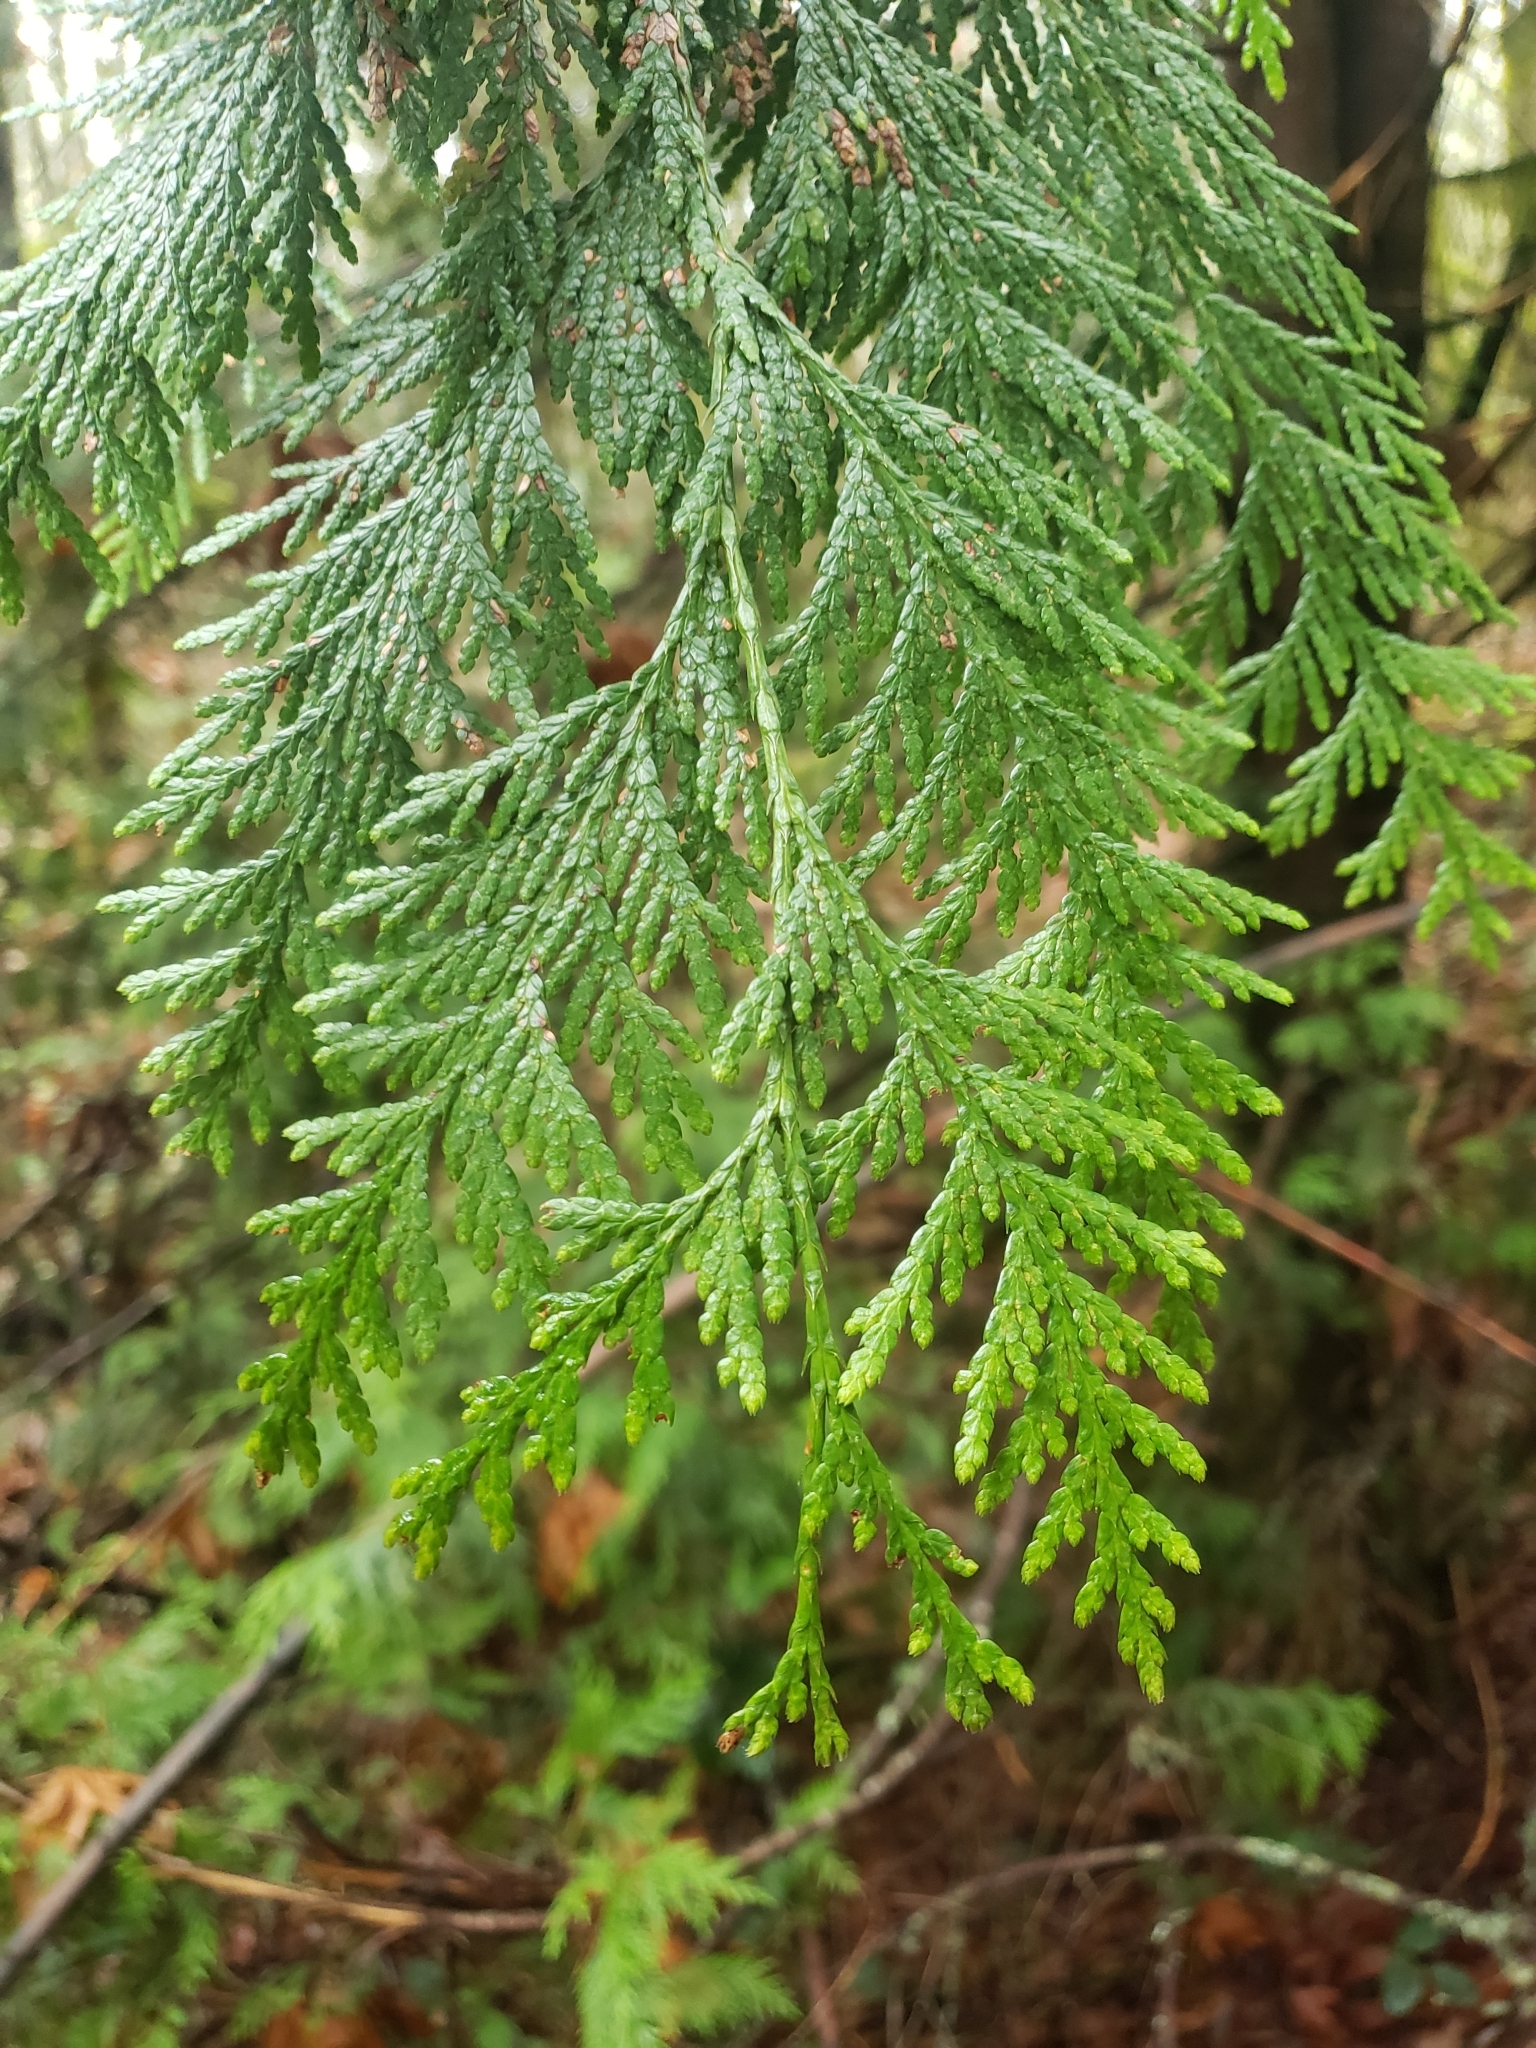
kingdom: Plantae
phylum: Tracheophyta
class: Pinopsida
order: Pinales
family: Cupressaceae
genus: Thuja
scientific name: Thuja plicata
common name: Western red-cedar
